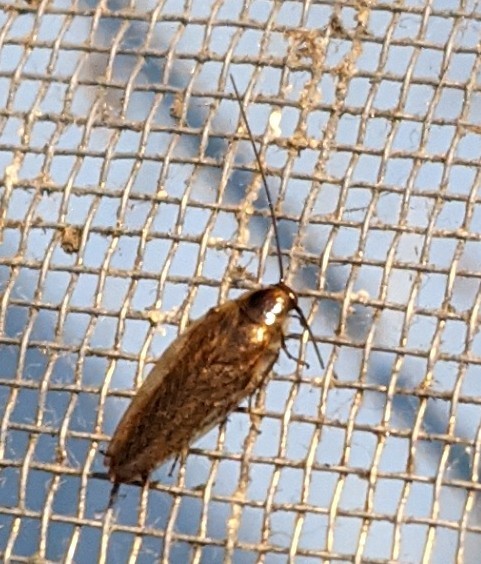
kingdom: Animalia
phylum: Arthropoda
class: Insecta
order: Blattodea
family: Ectobiidae
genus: Ectobius
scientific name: Ectobius lapponicus
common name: Dusky cockroach
